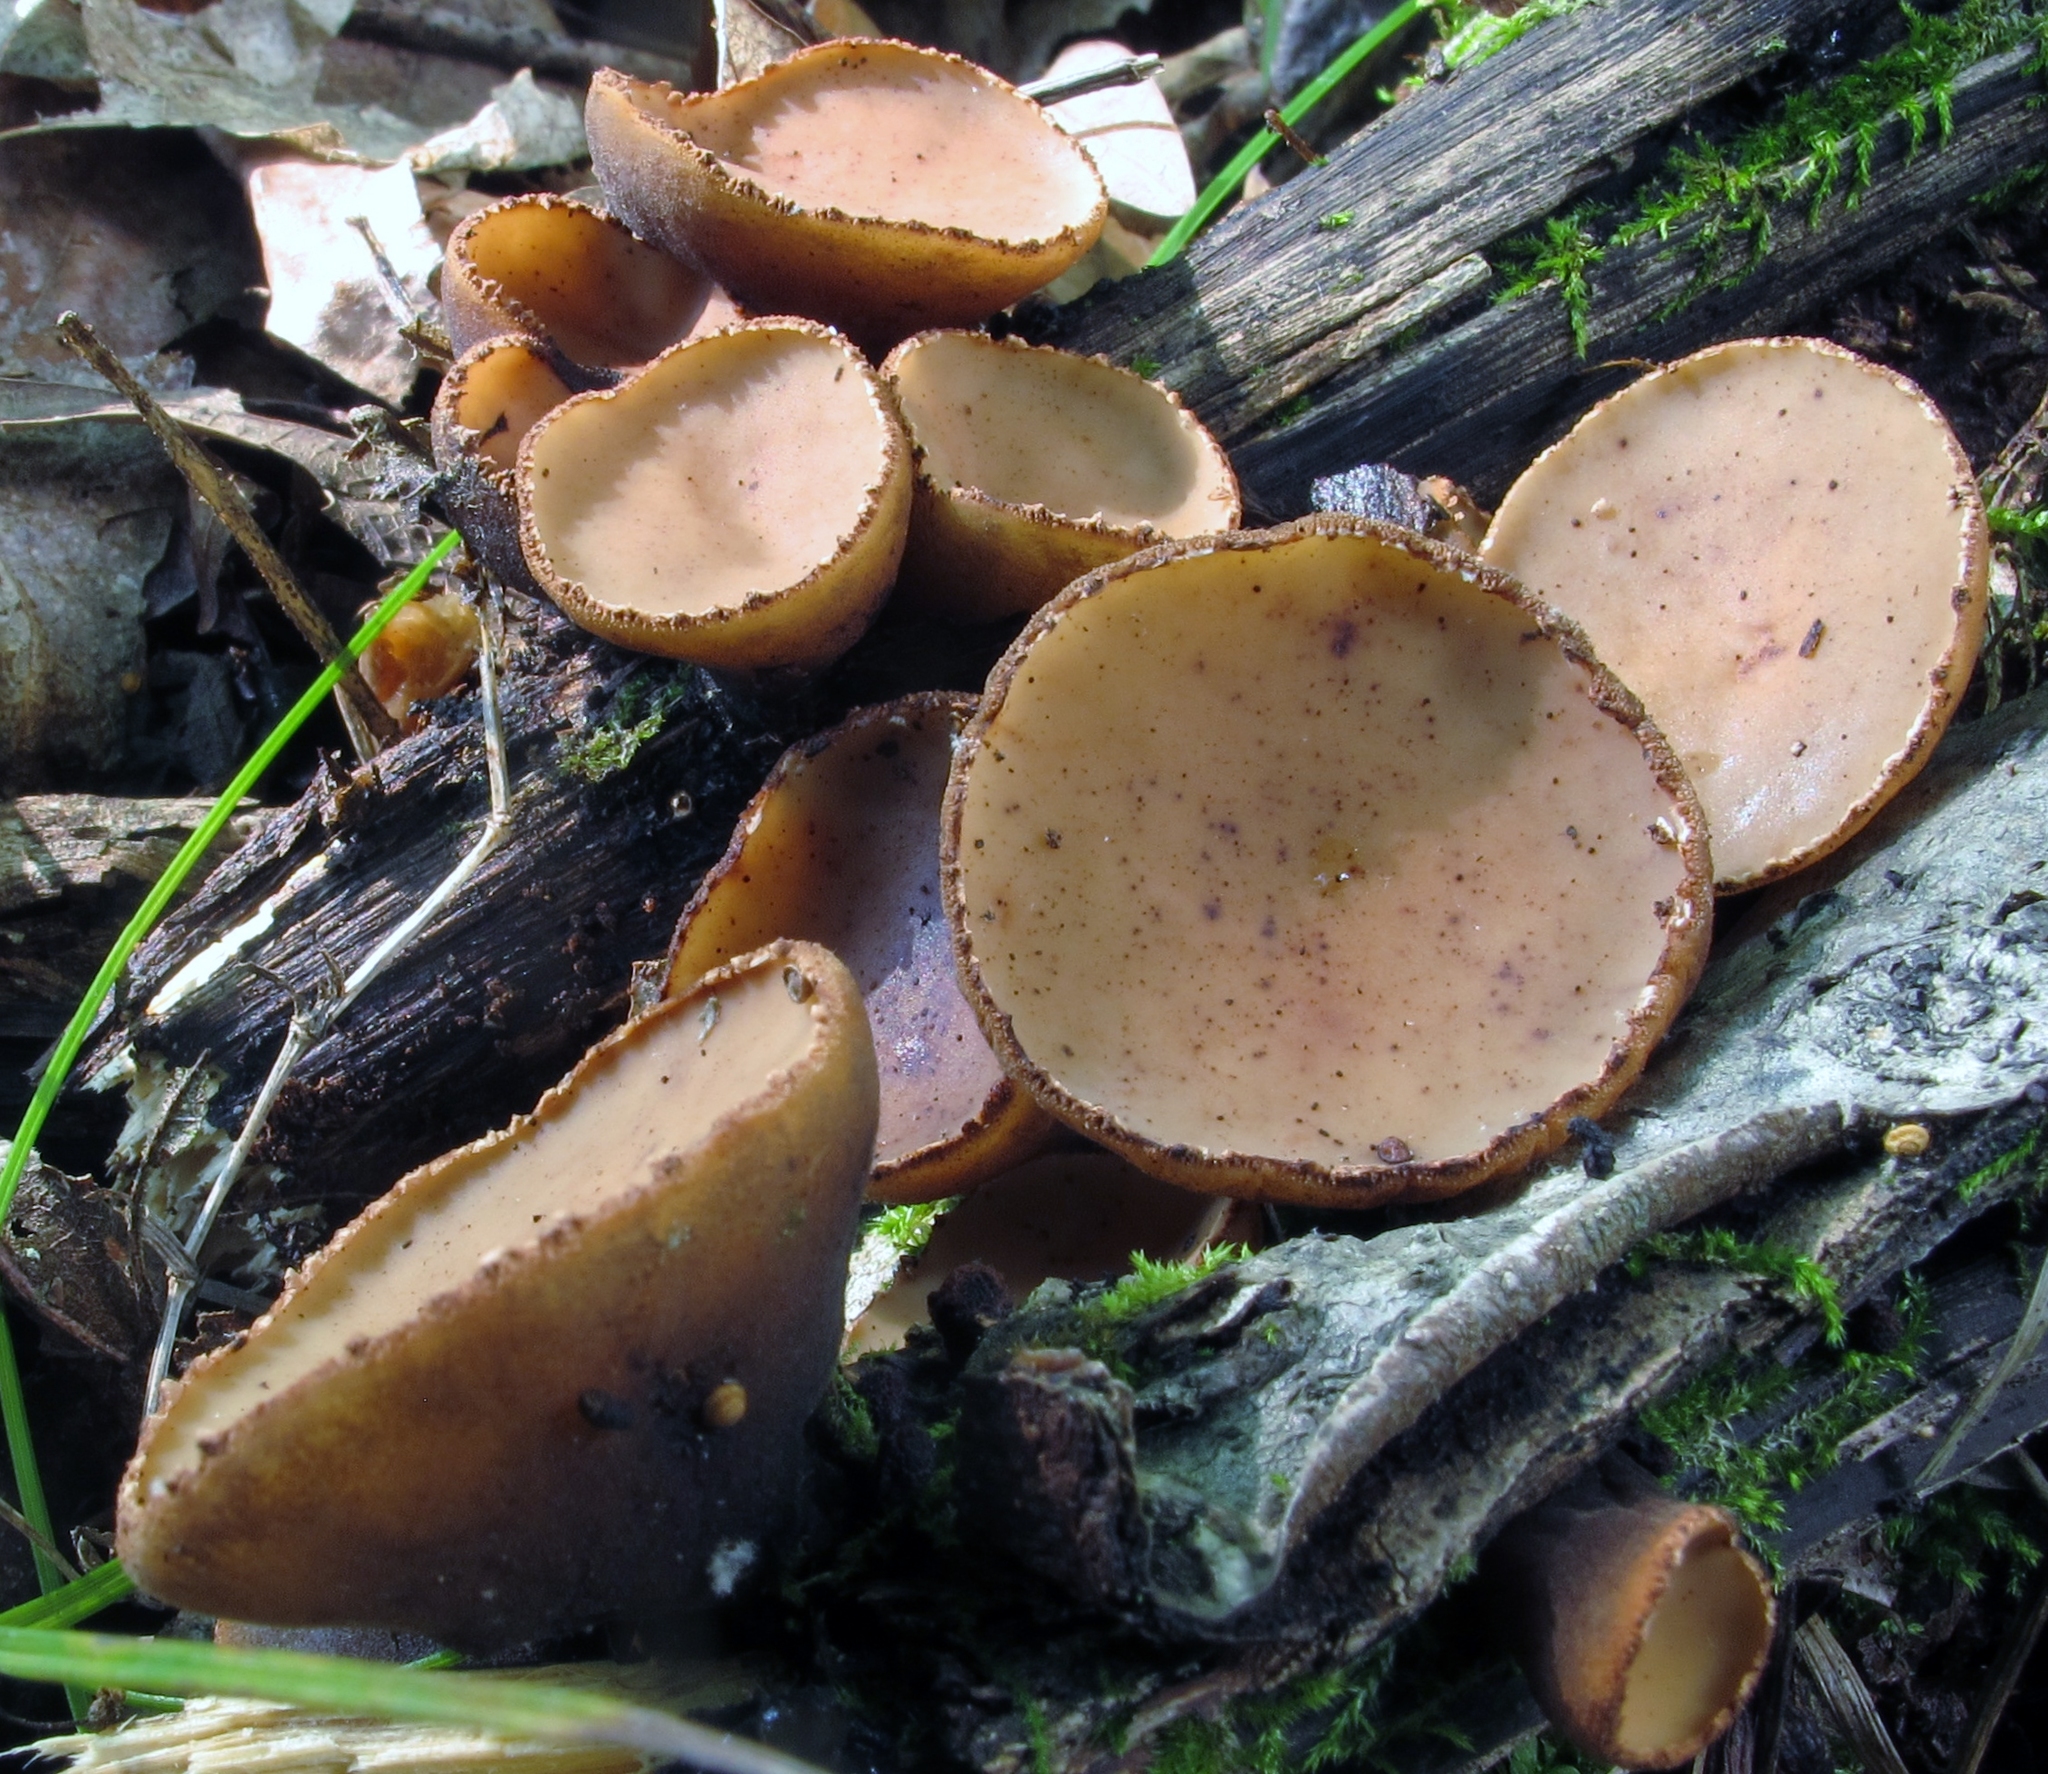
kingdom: Fungi
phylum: Ascomycota
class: Pezizomycetes
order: Pezizales
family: Sarcosomataceae
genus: Galiella
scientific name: Galiella rufa
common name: Hairy rubber cup
